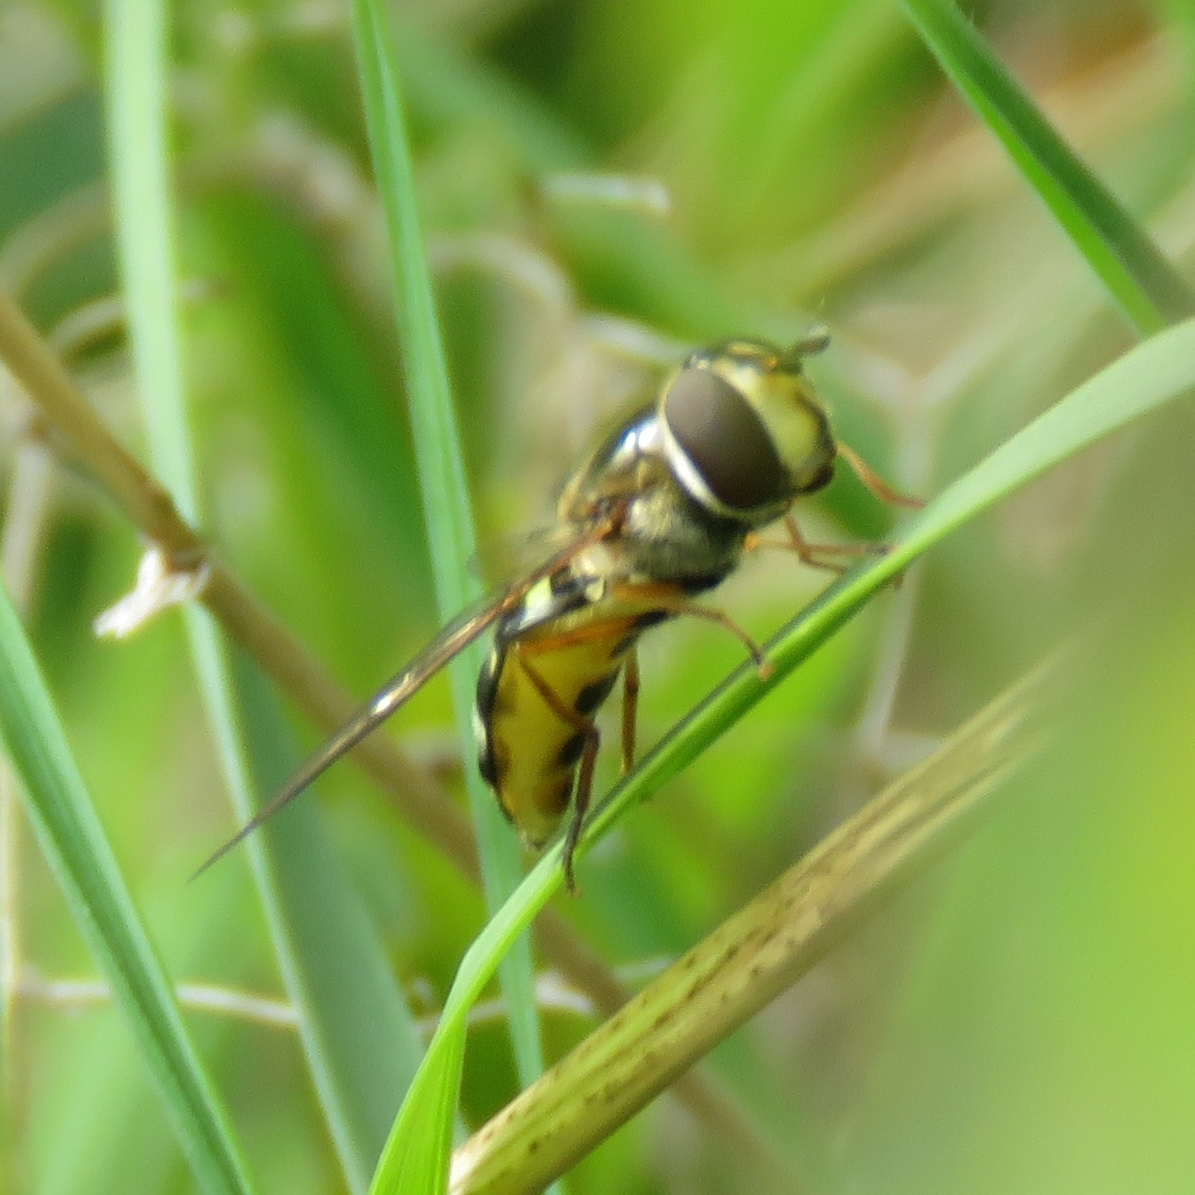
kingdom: Animalia
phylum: Arthropoda
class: Insecta
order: Diptera
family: Syrphidae
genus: Eupeodes
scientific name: Eupeodes luniger
